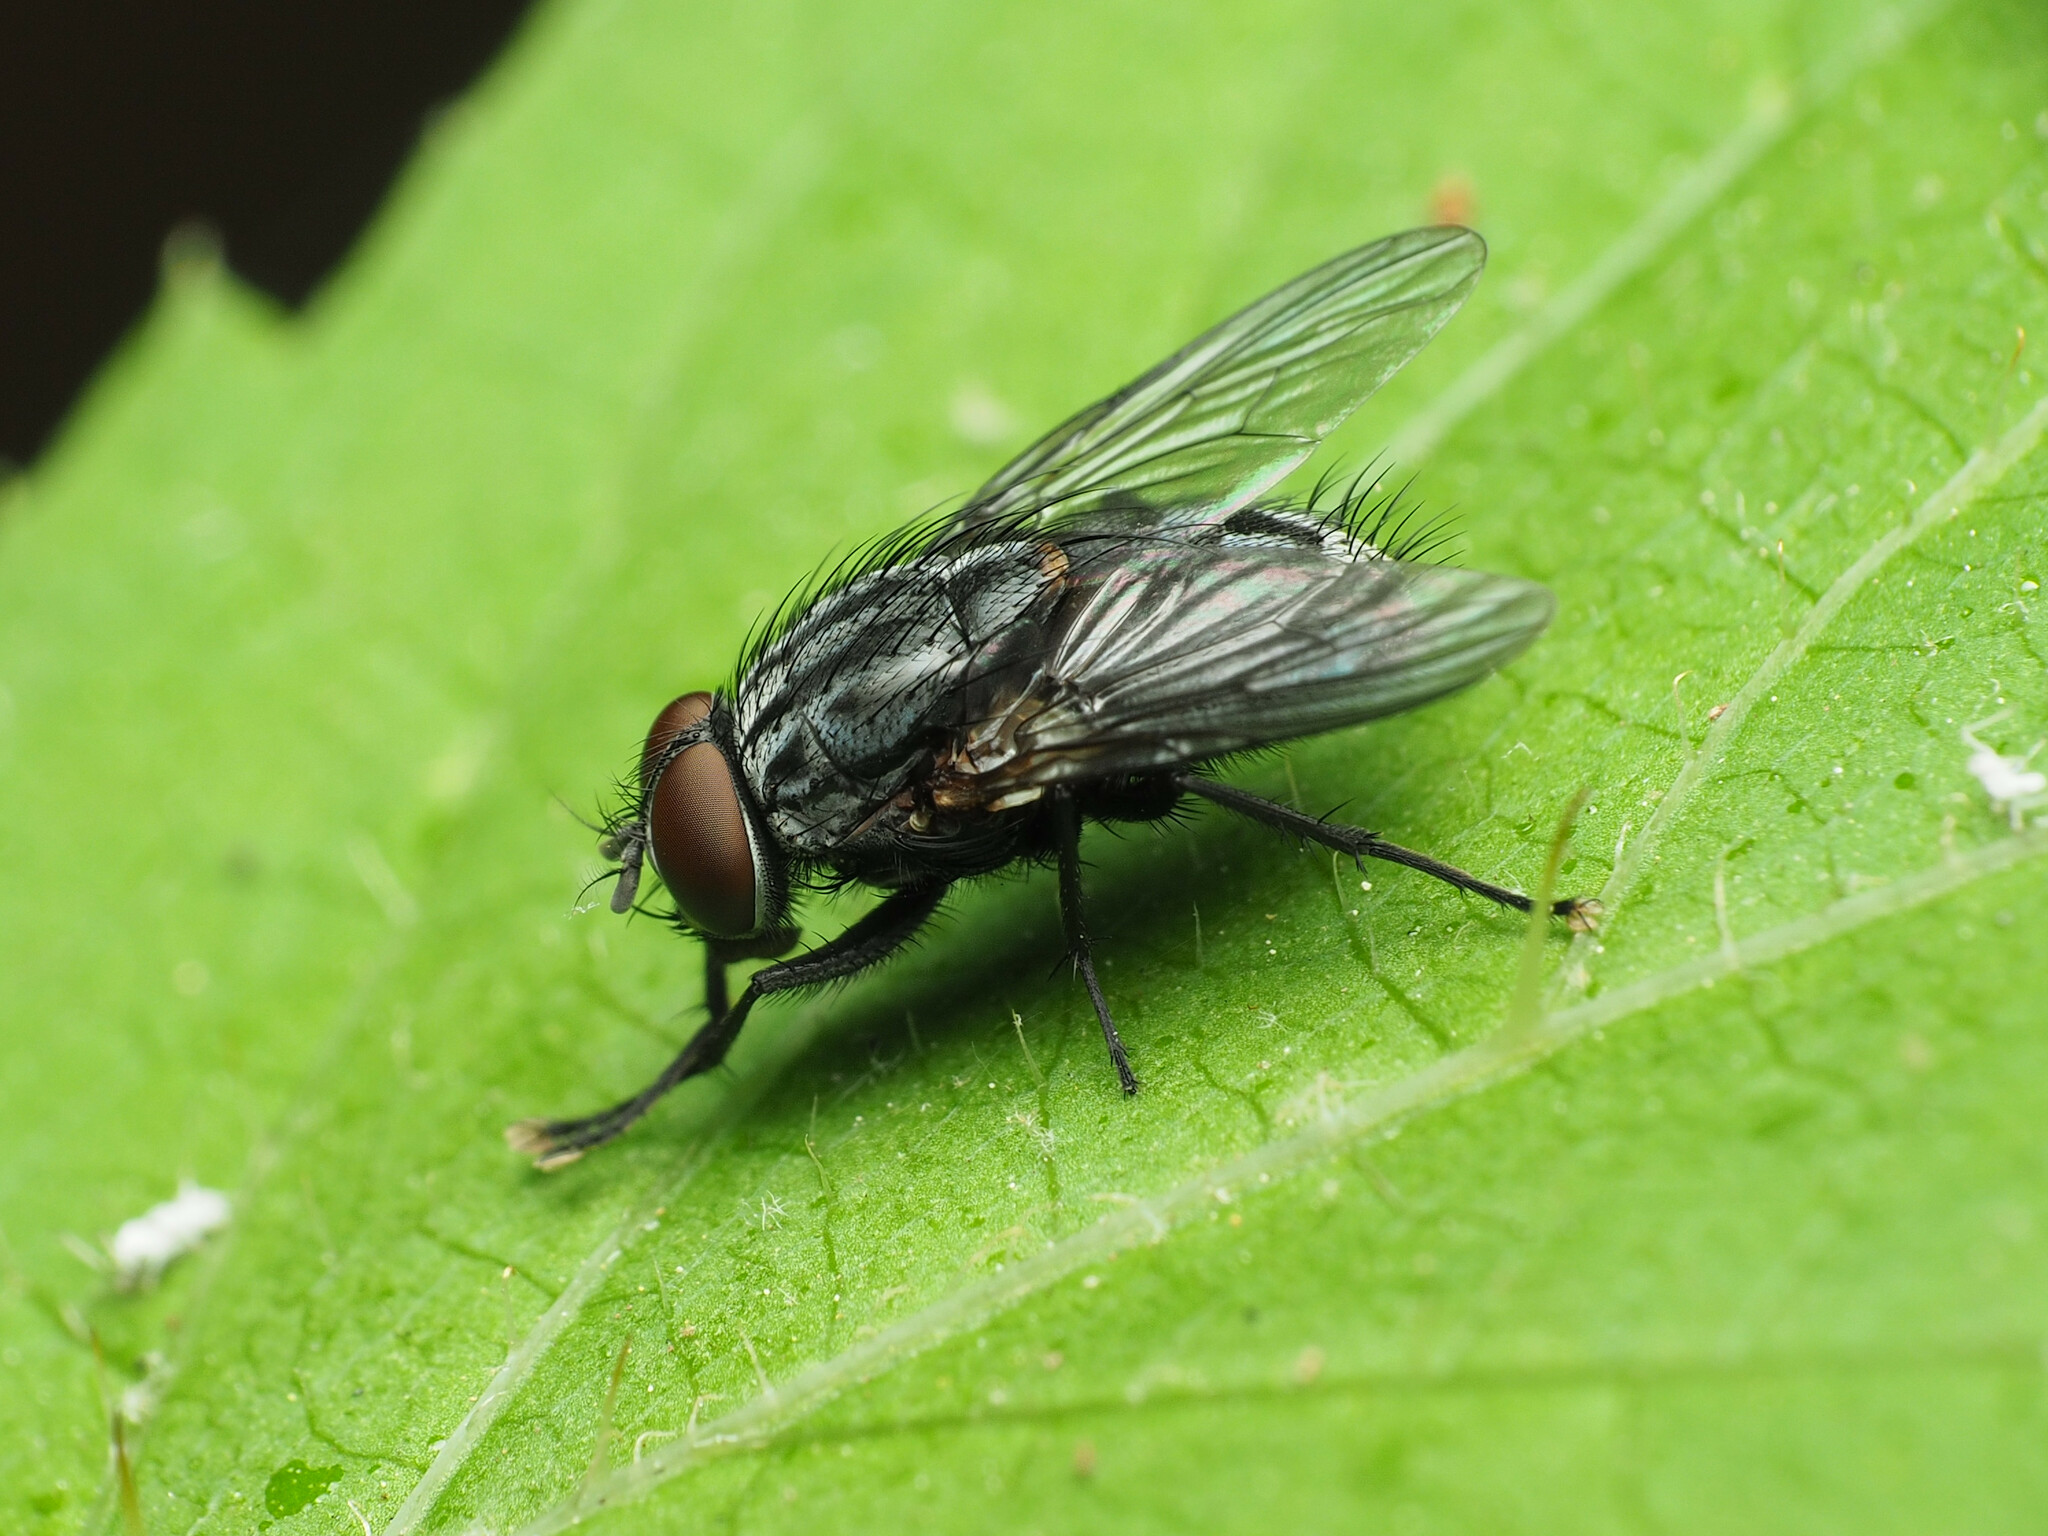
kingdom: Animalia
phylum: Arthropoda
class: Insecta
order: Diptera
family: Muscidae
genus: Muscina
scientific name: Muscina levida
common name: House fly
